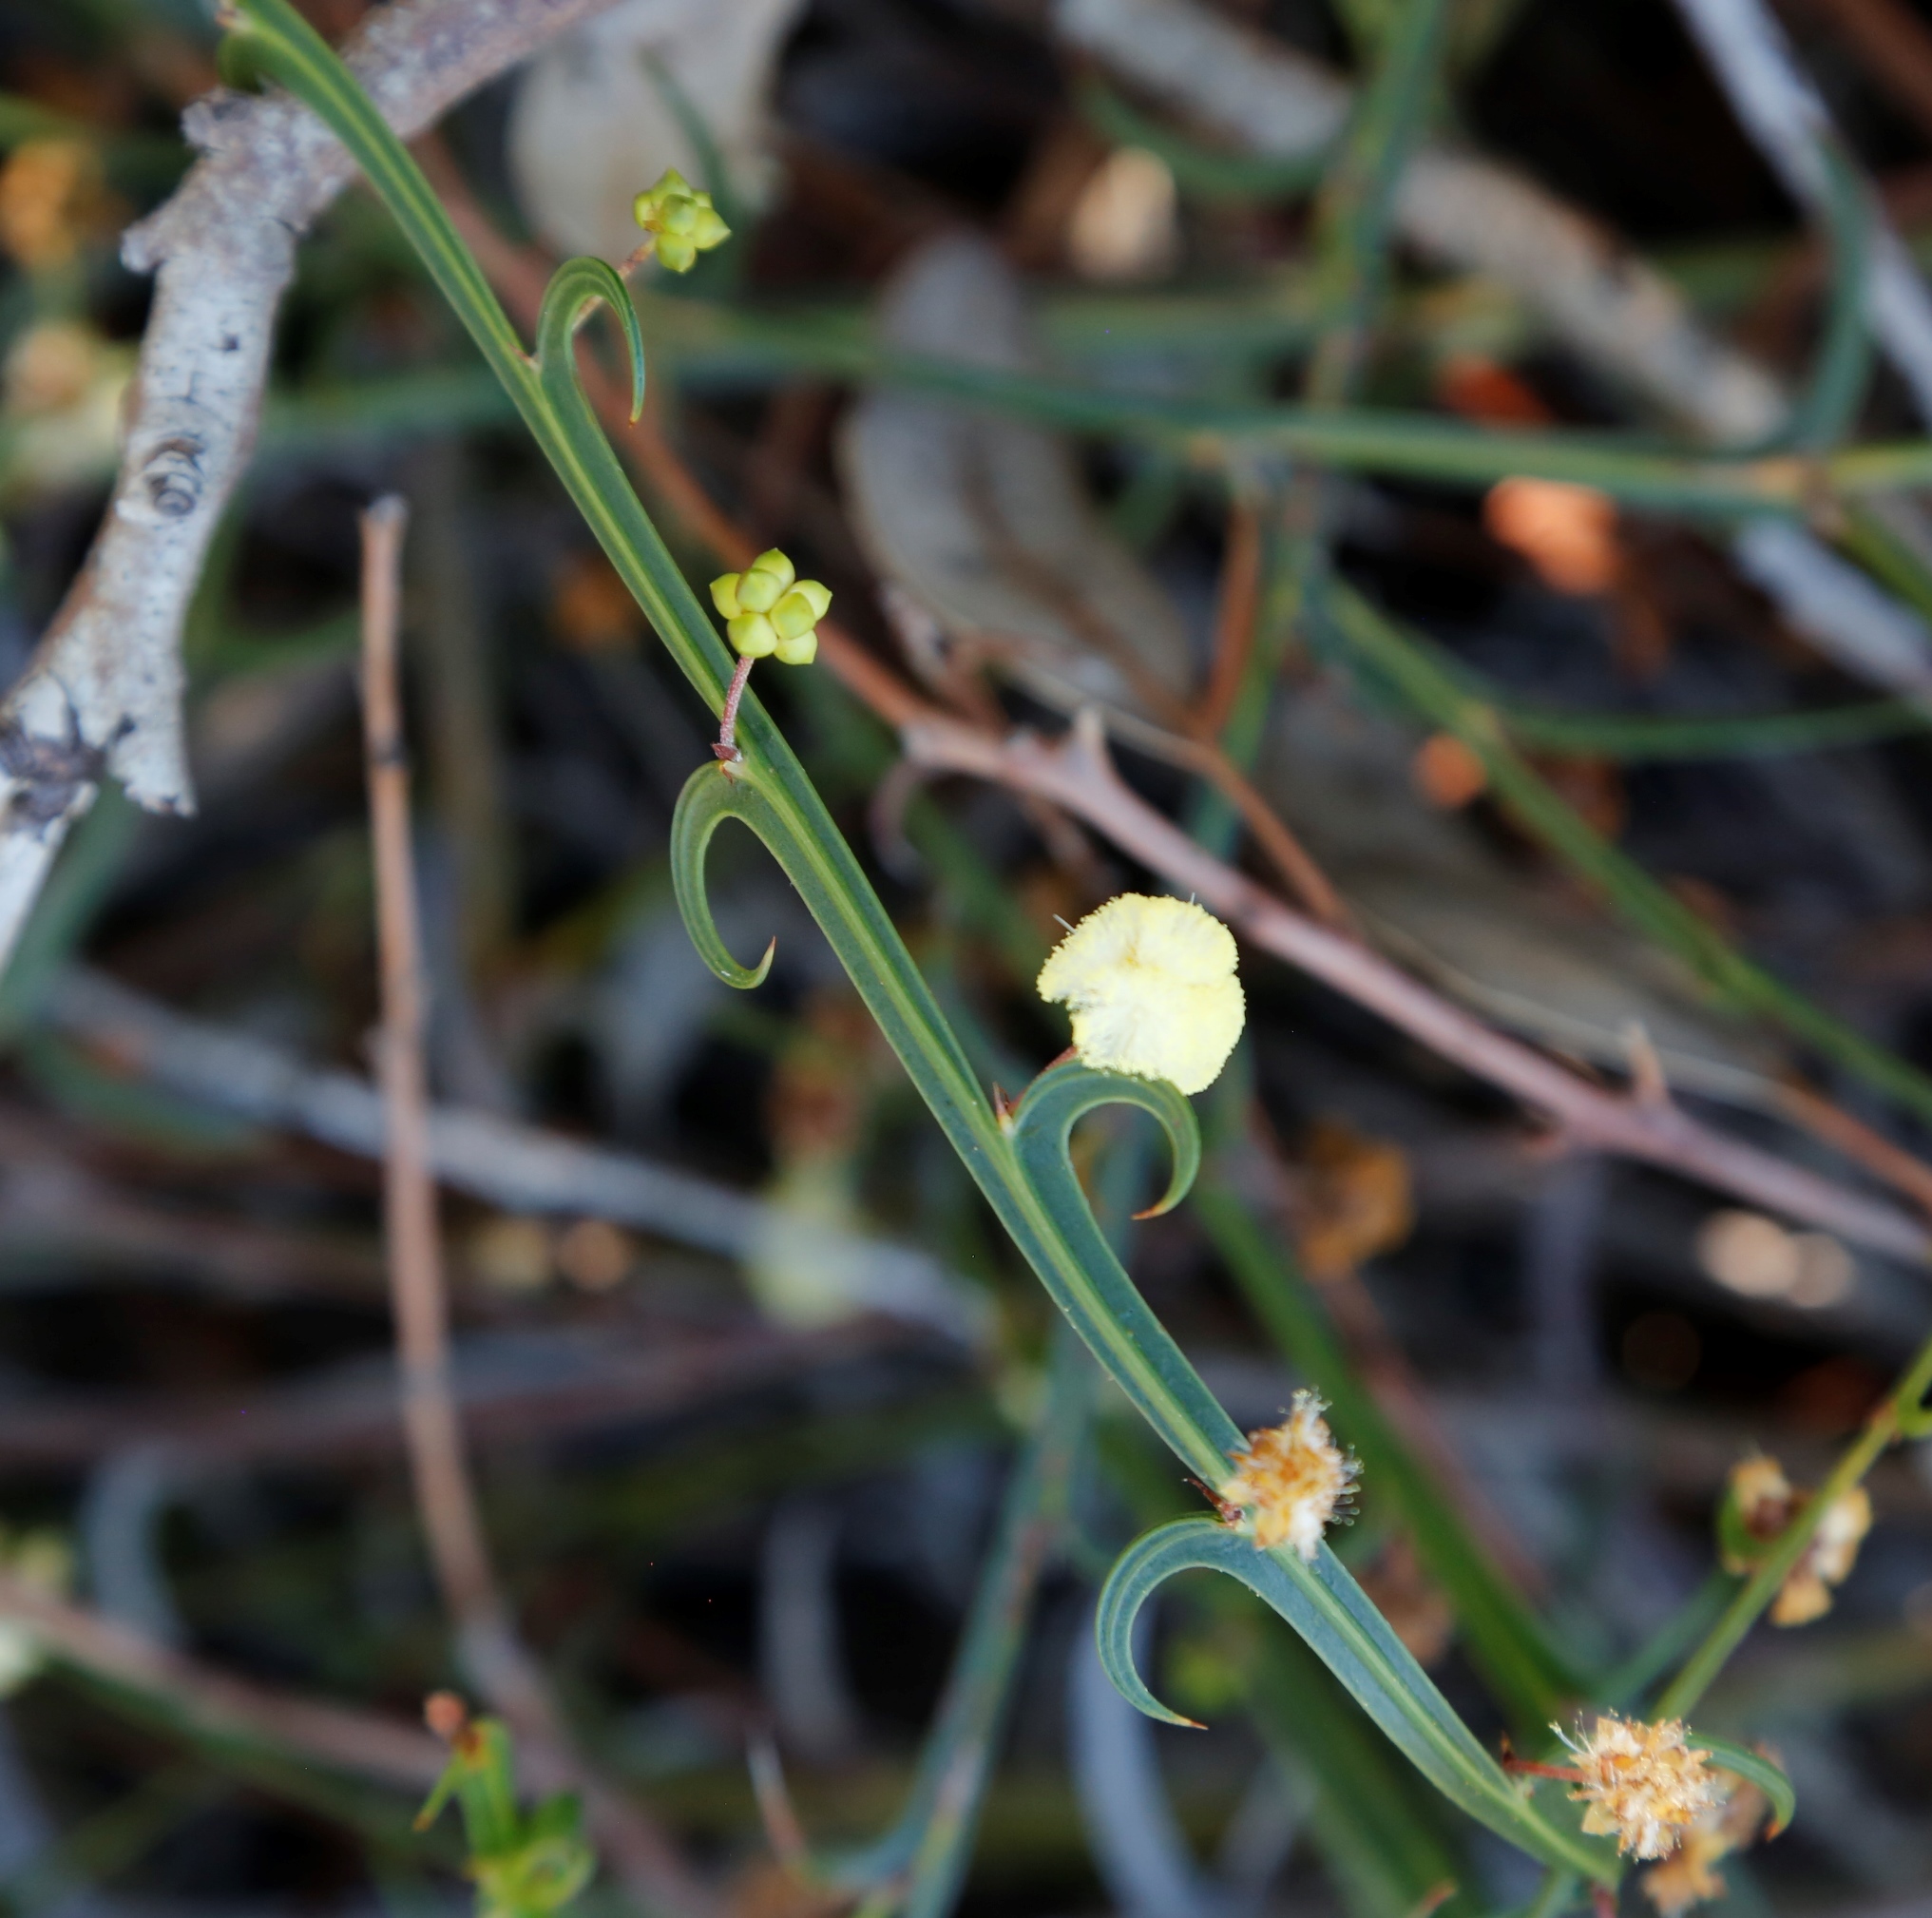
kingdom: Plantae
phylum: Tracheophyta
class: Magnoliopsida
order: Fabales
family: Fabaceae
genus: Acacia
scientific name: Acacia stenoptera
